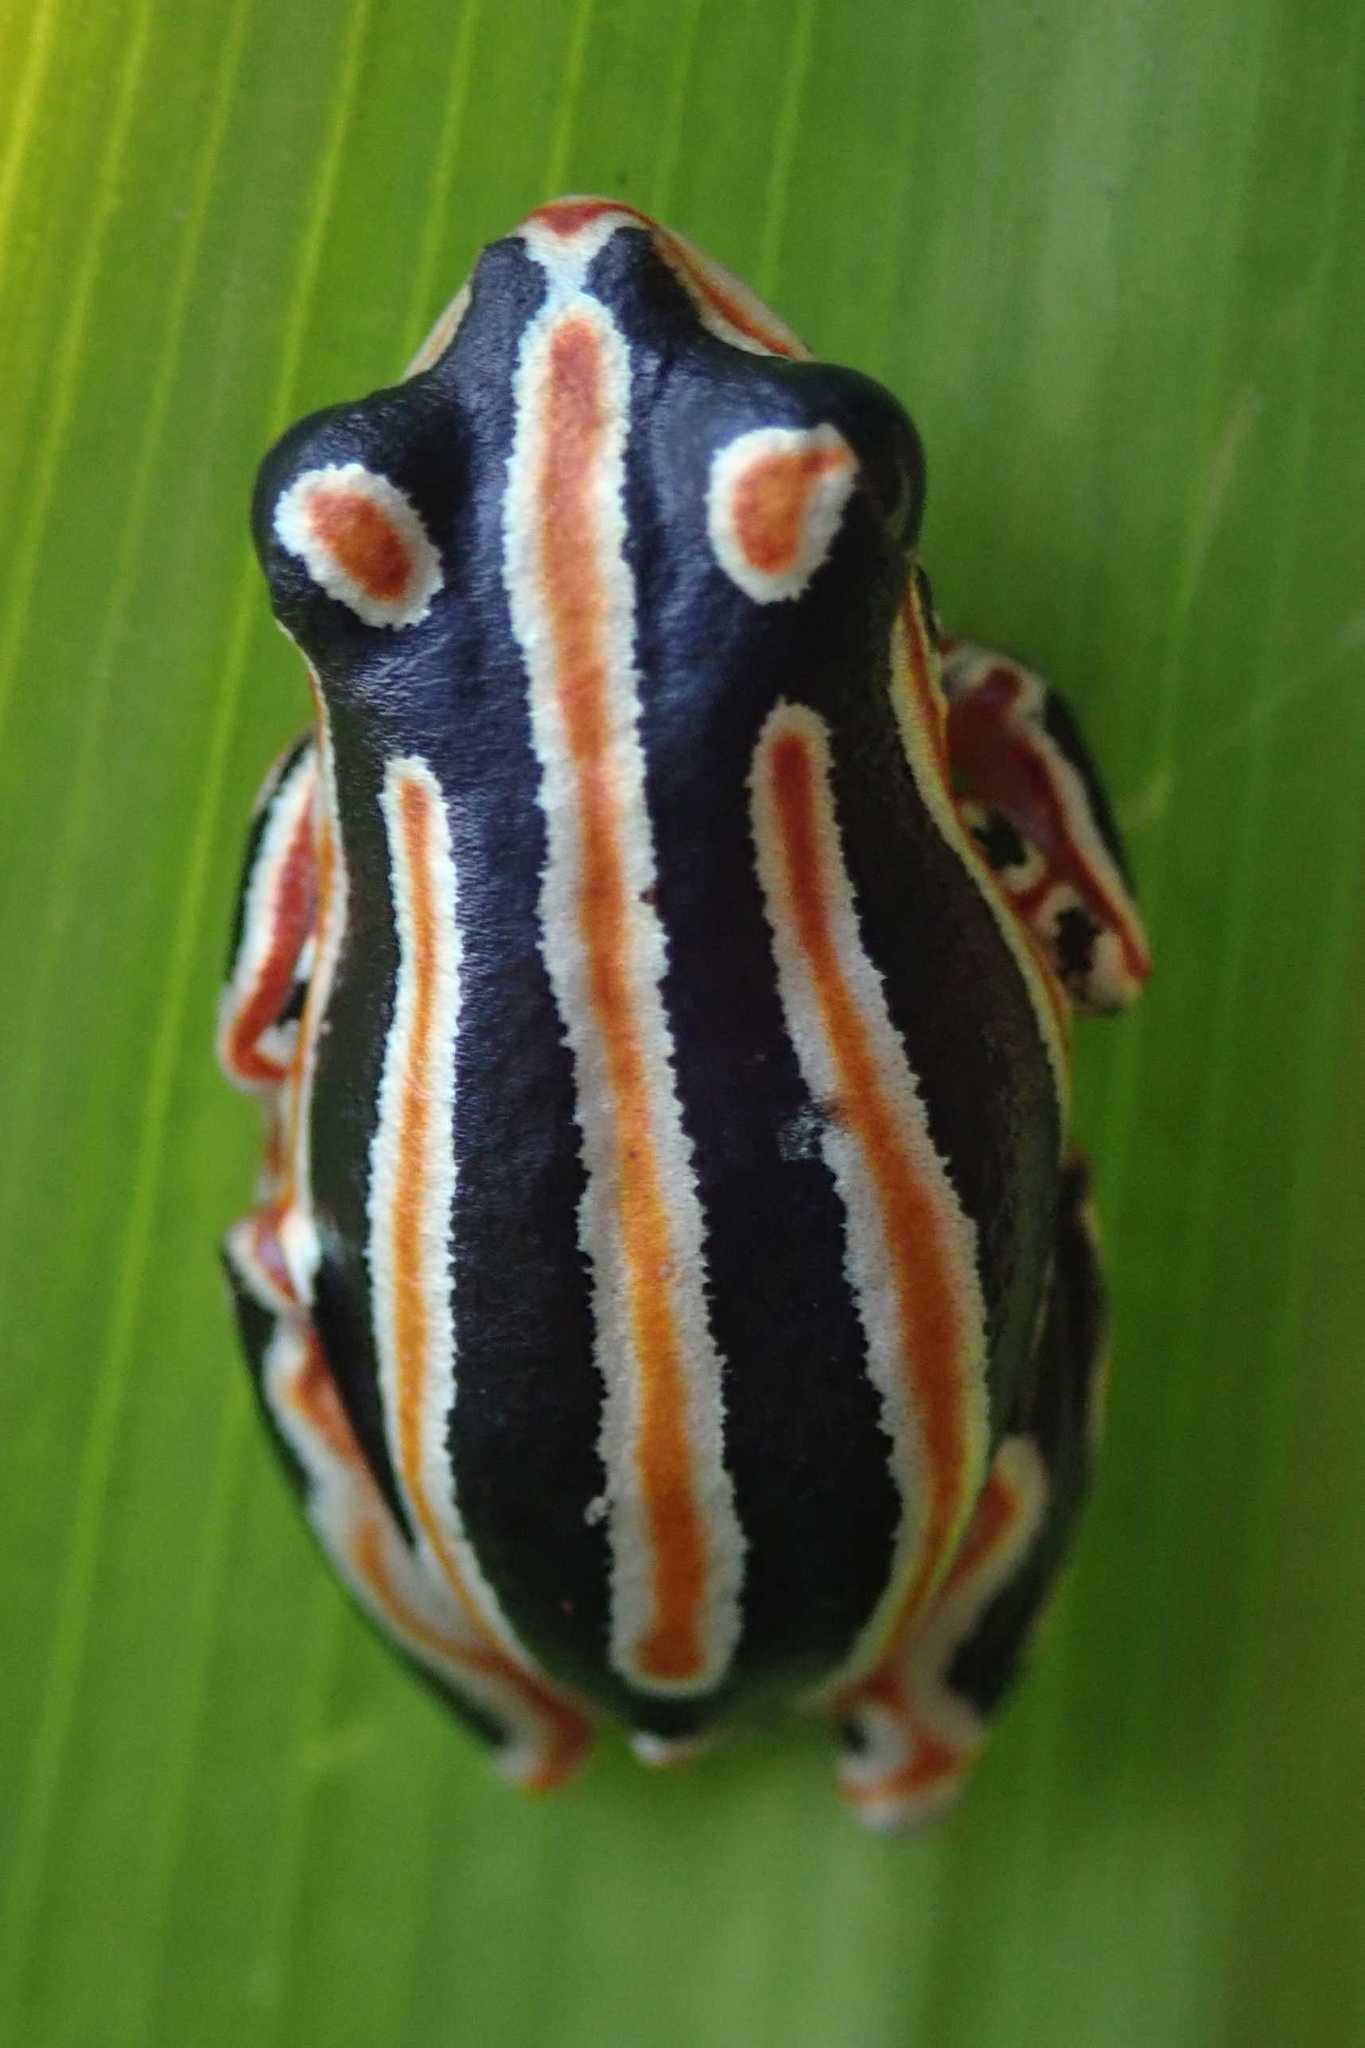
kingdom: Animalia
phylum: Chordata
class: Amphibia
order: Anura
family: Hyperoliidae
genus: Hyperolius
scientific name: Hyperolius marmoratus
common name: Painted reed frog
